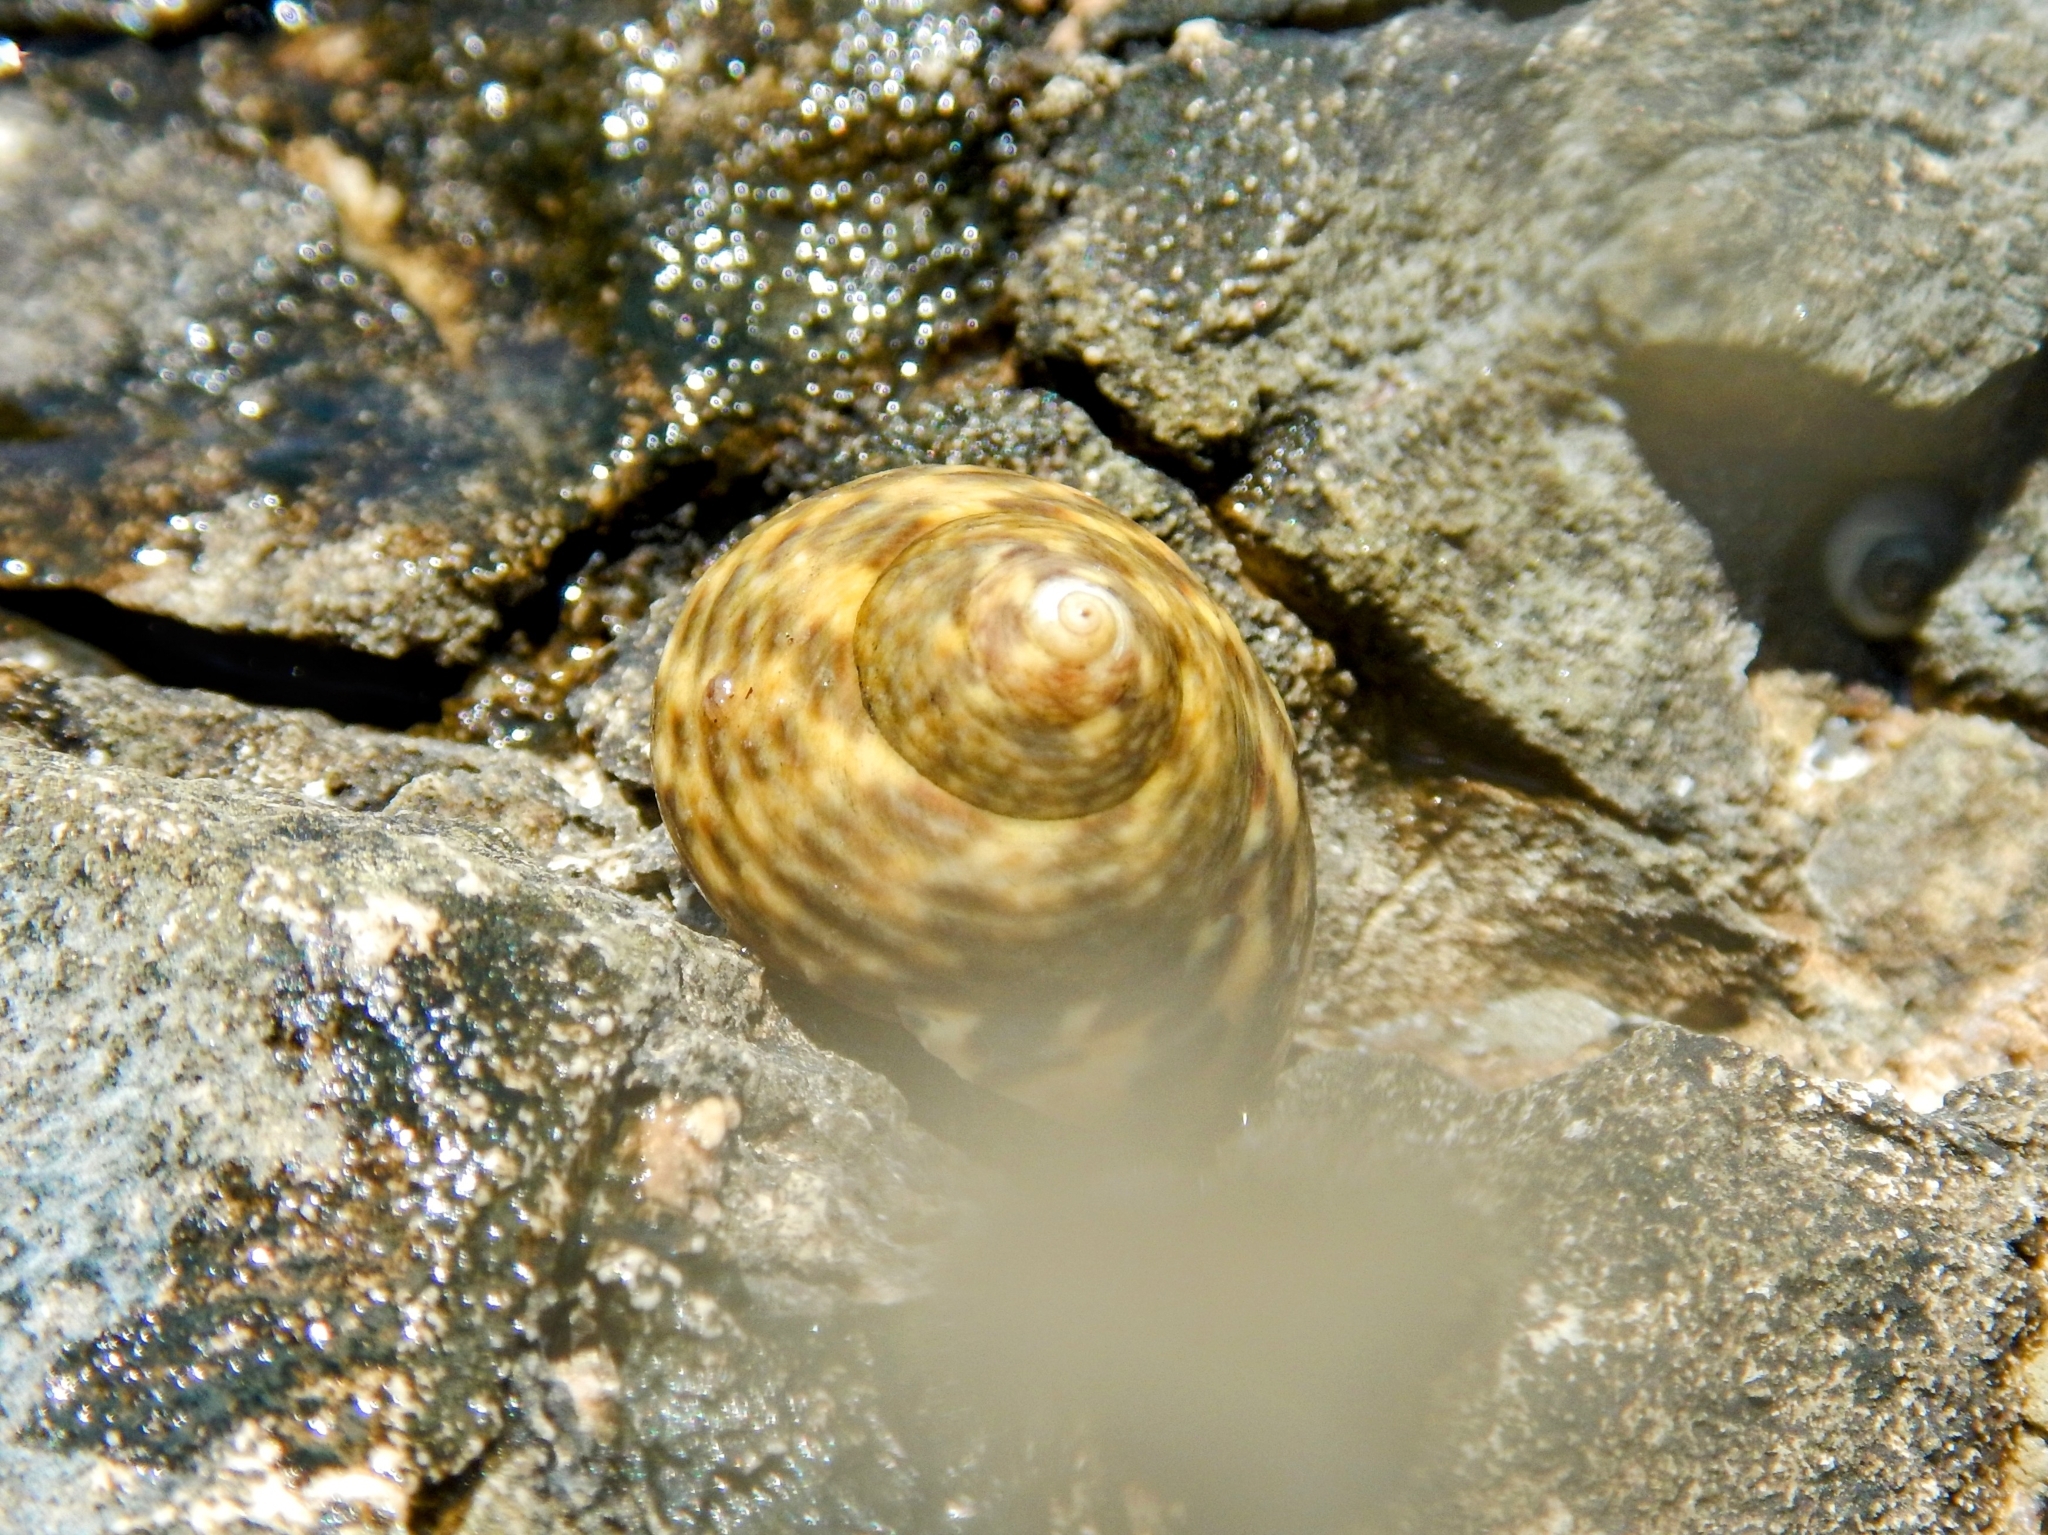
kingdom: Animalia
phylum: Mollusca
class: Gastropoda
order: Trochida
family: Trochidae
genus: Phorcus
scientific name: Phorcus turbinatus
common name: Turbinate monodont
